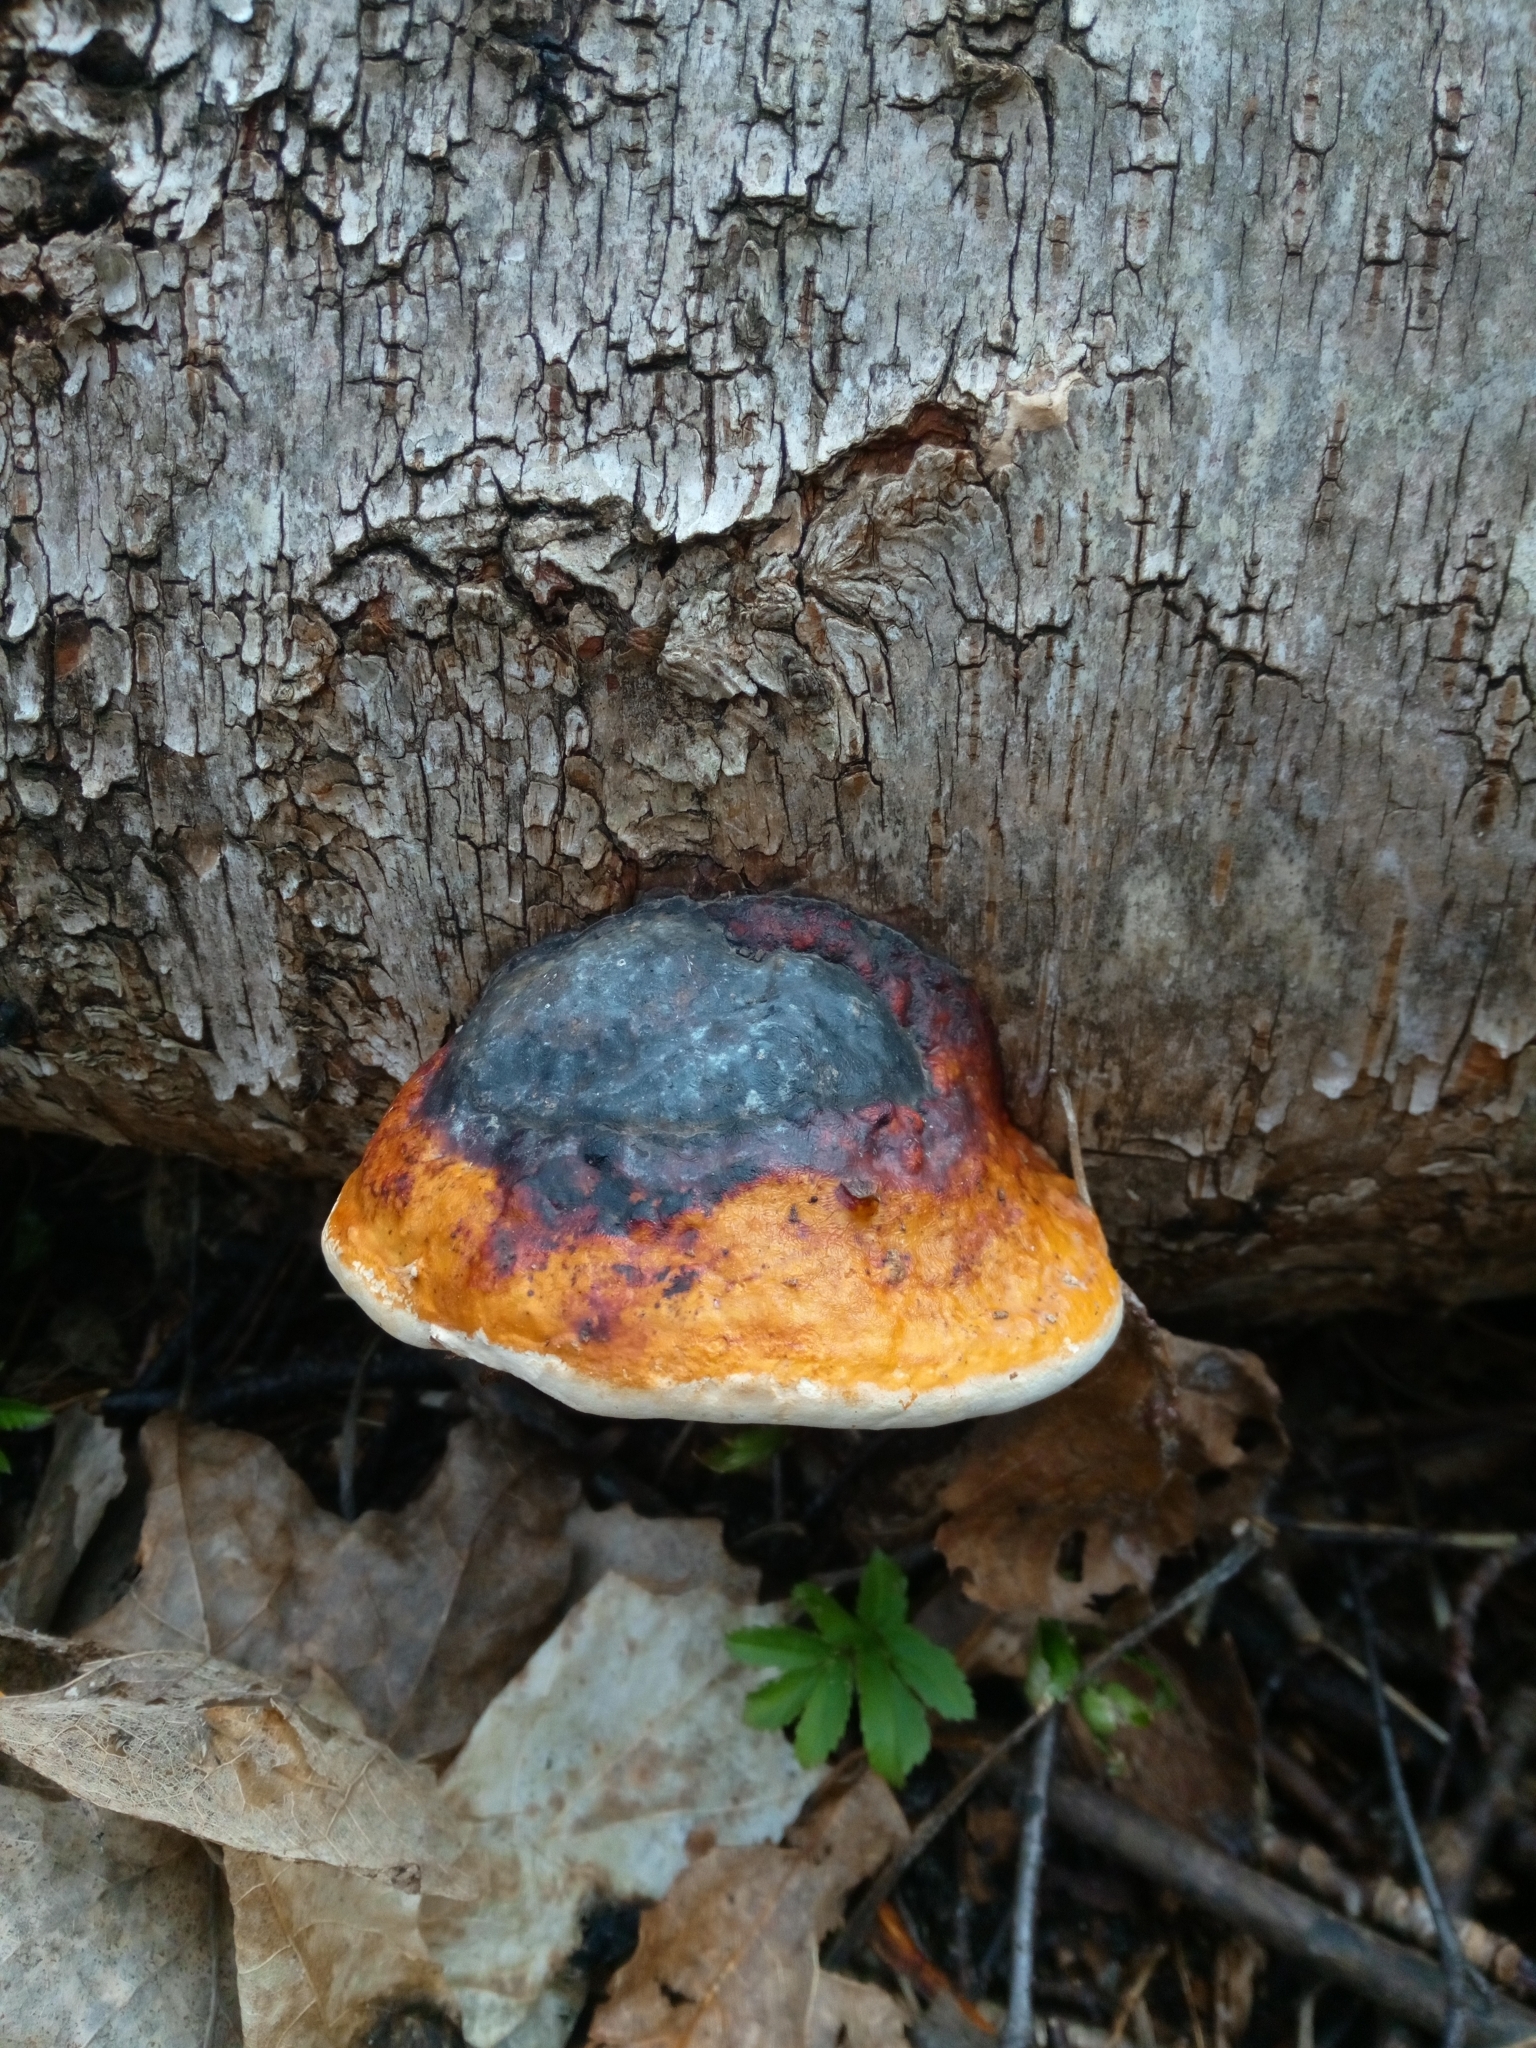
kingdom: Fungi
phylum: Basidiomycota
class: Agaricomycetes
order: Polyporales
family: Fomitopsidaceae
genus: Fomitopsis
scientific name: Fomitopsis pinicola
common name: Red-belted bracket
